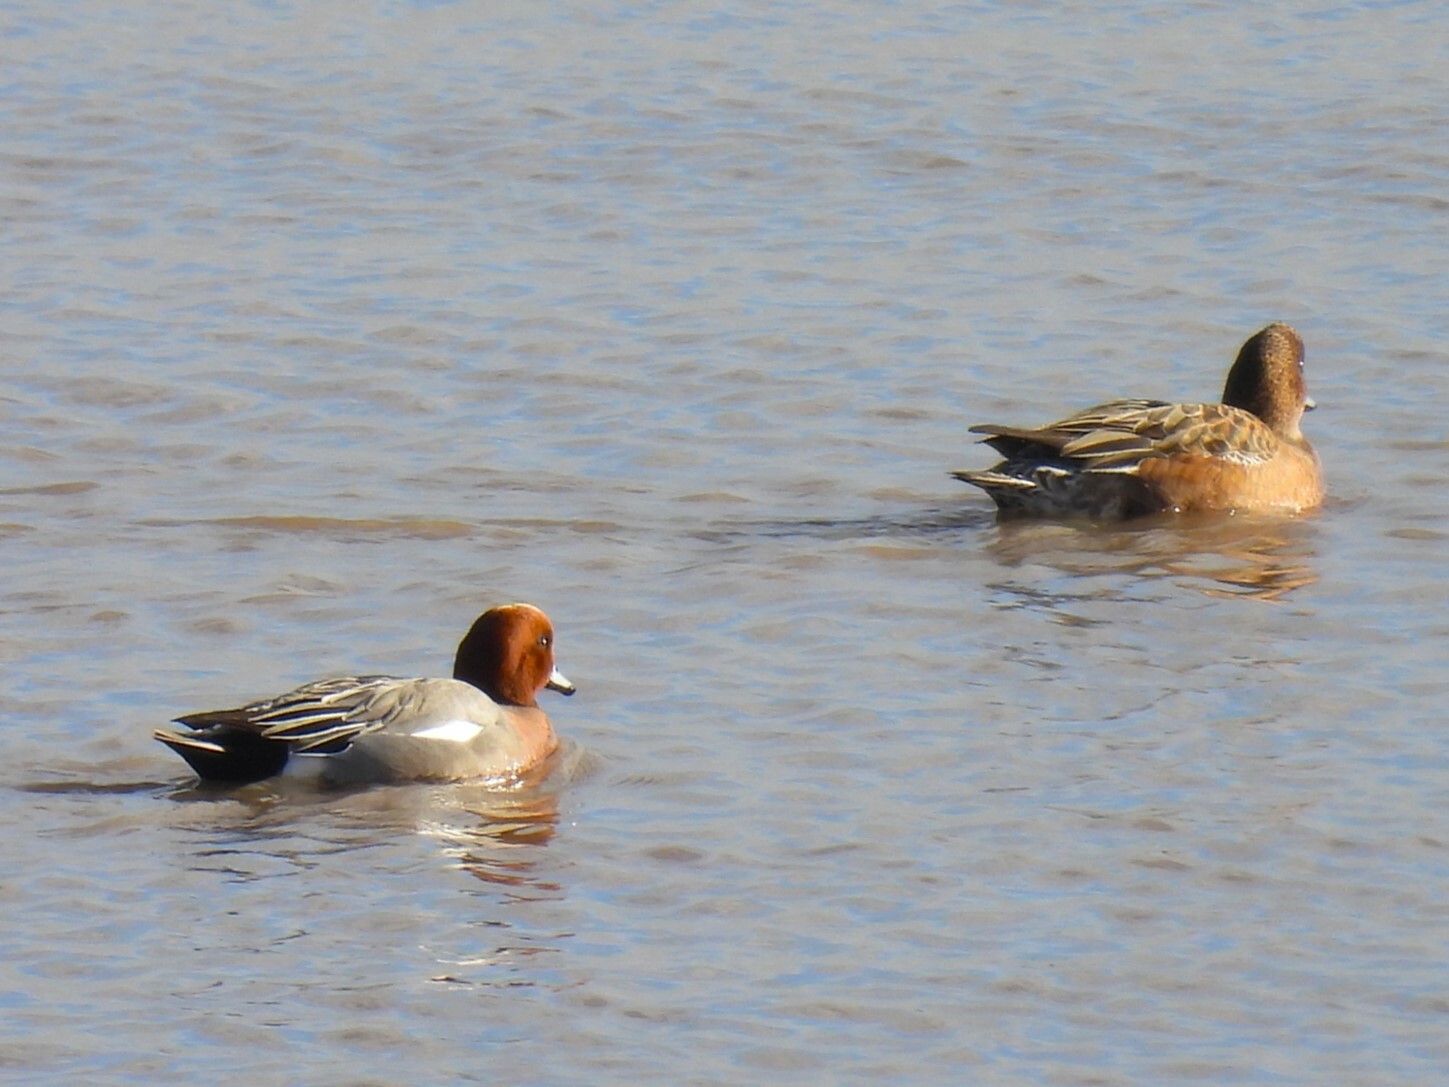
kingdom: Animalia
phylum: Chordata
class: Aves
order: Anseriformes
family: Anatidae
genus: Mareca
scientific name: Mareca penelope
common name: Eurasian wigeon
